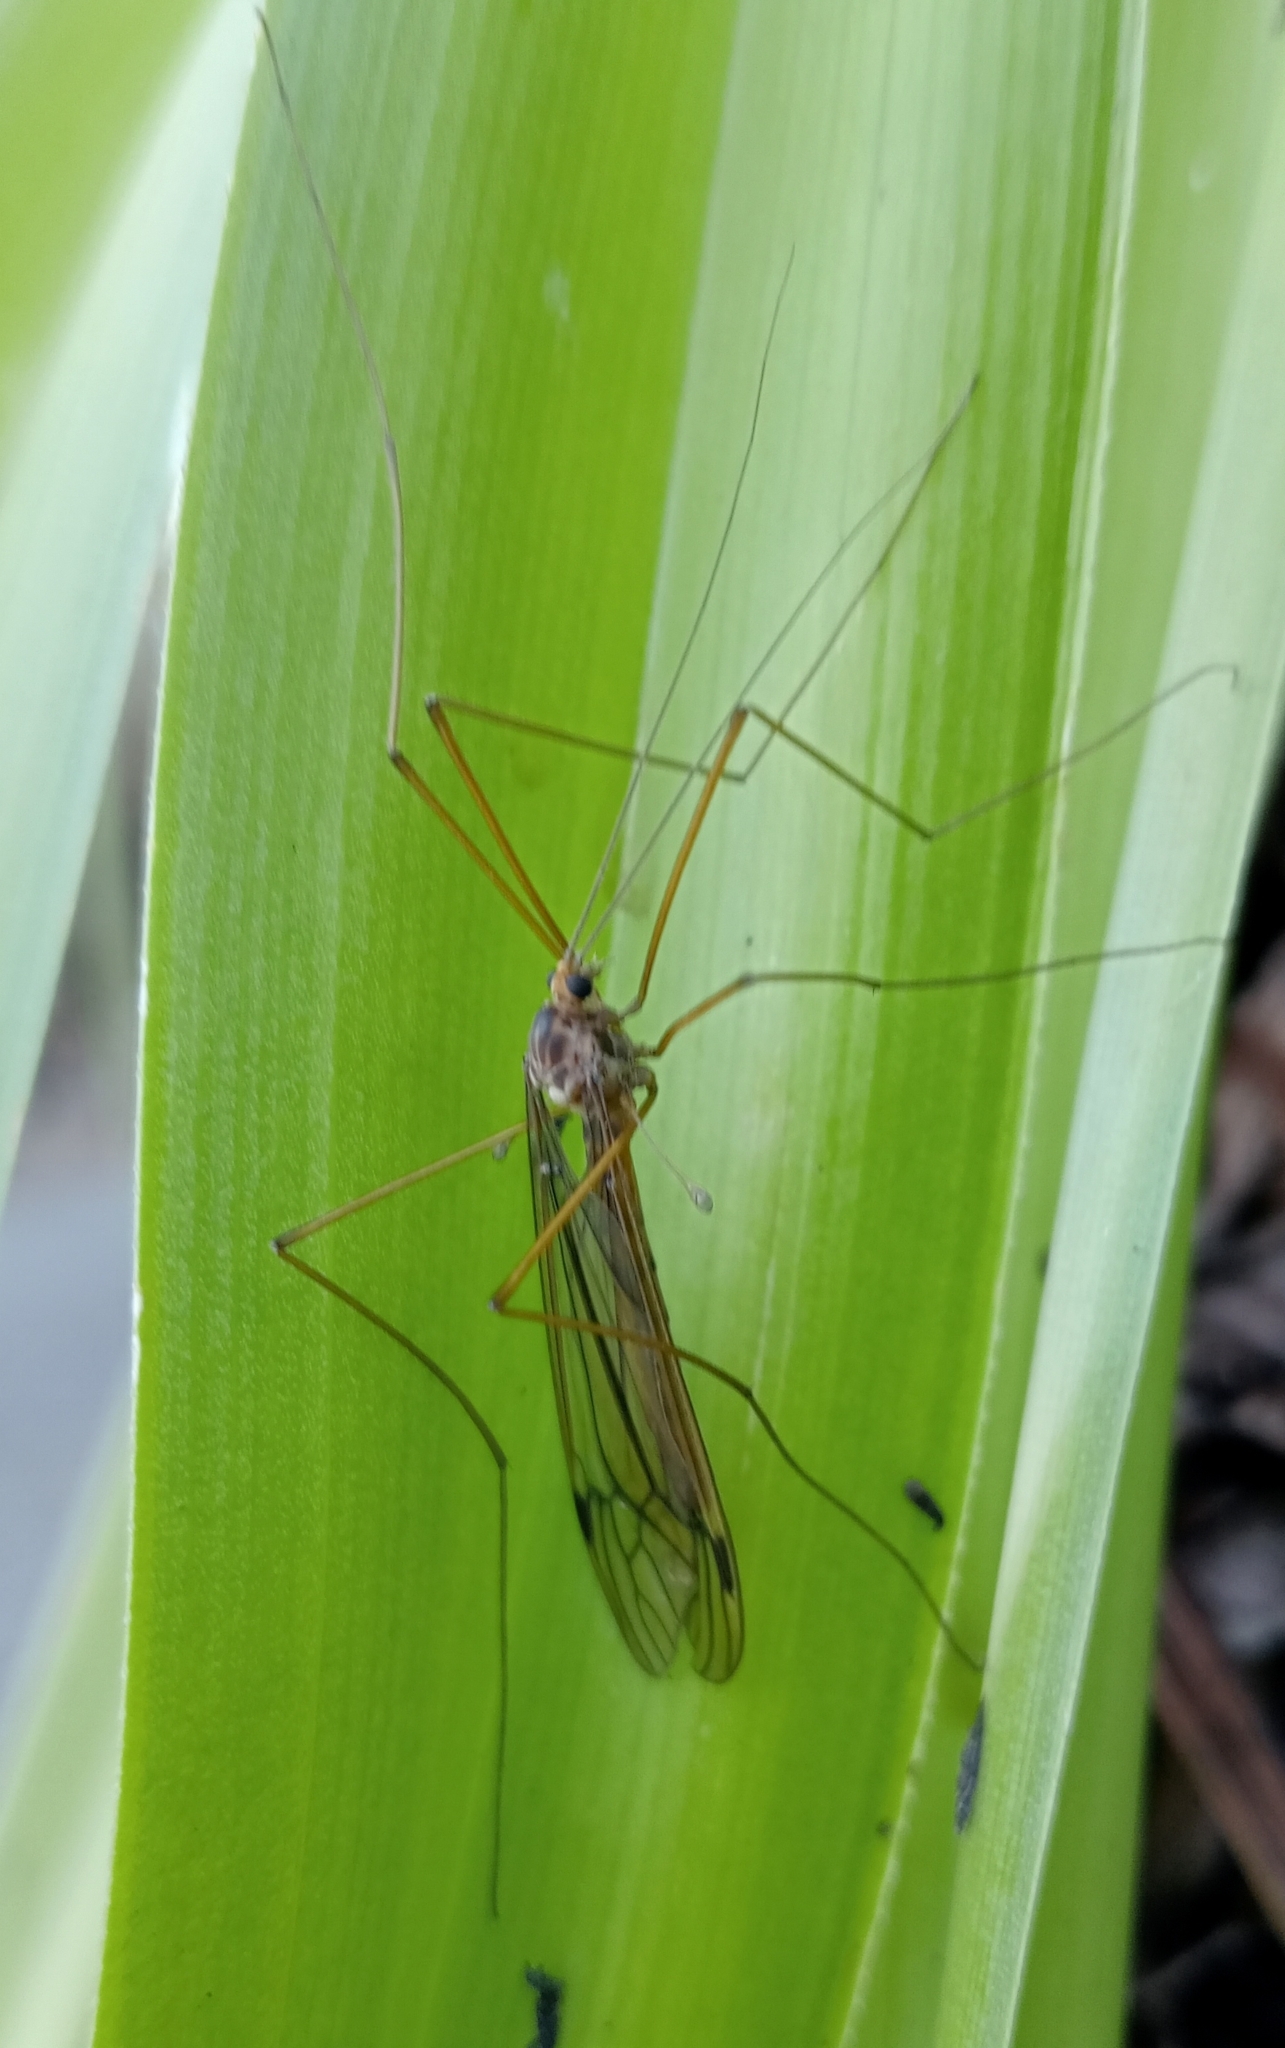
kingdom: Animalia
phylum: Arthropoda
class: Insecta
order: Diptera
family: Tipulidae
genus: Leptotarsus
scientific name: Leptotarsus pallidus
